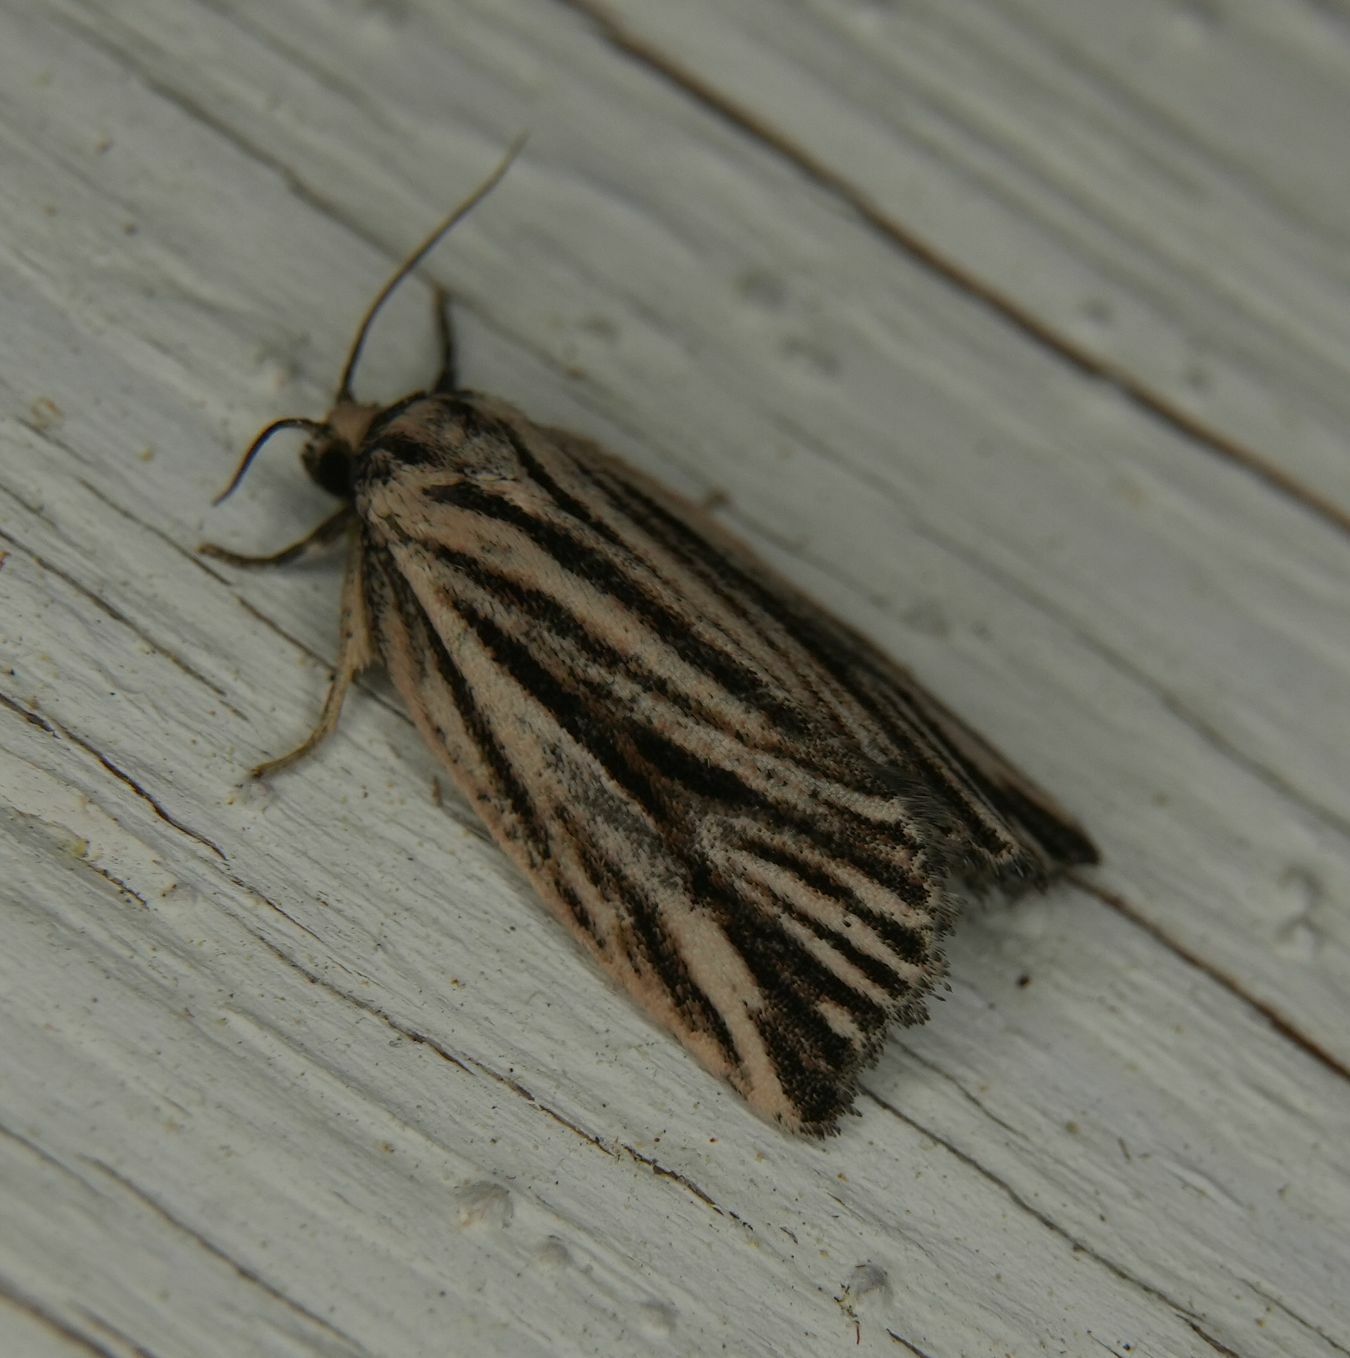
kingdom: Animalia
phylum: Arthropoda
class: Insecta
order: Lepidoptera
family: Tortricidae
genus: Archips
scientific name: Archips strianus
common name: Striated tortrix moth
